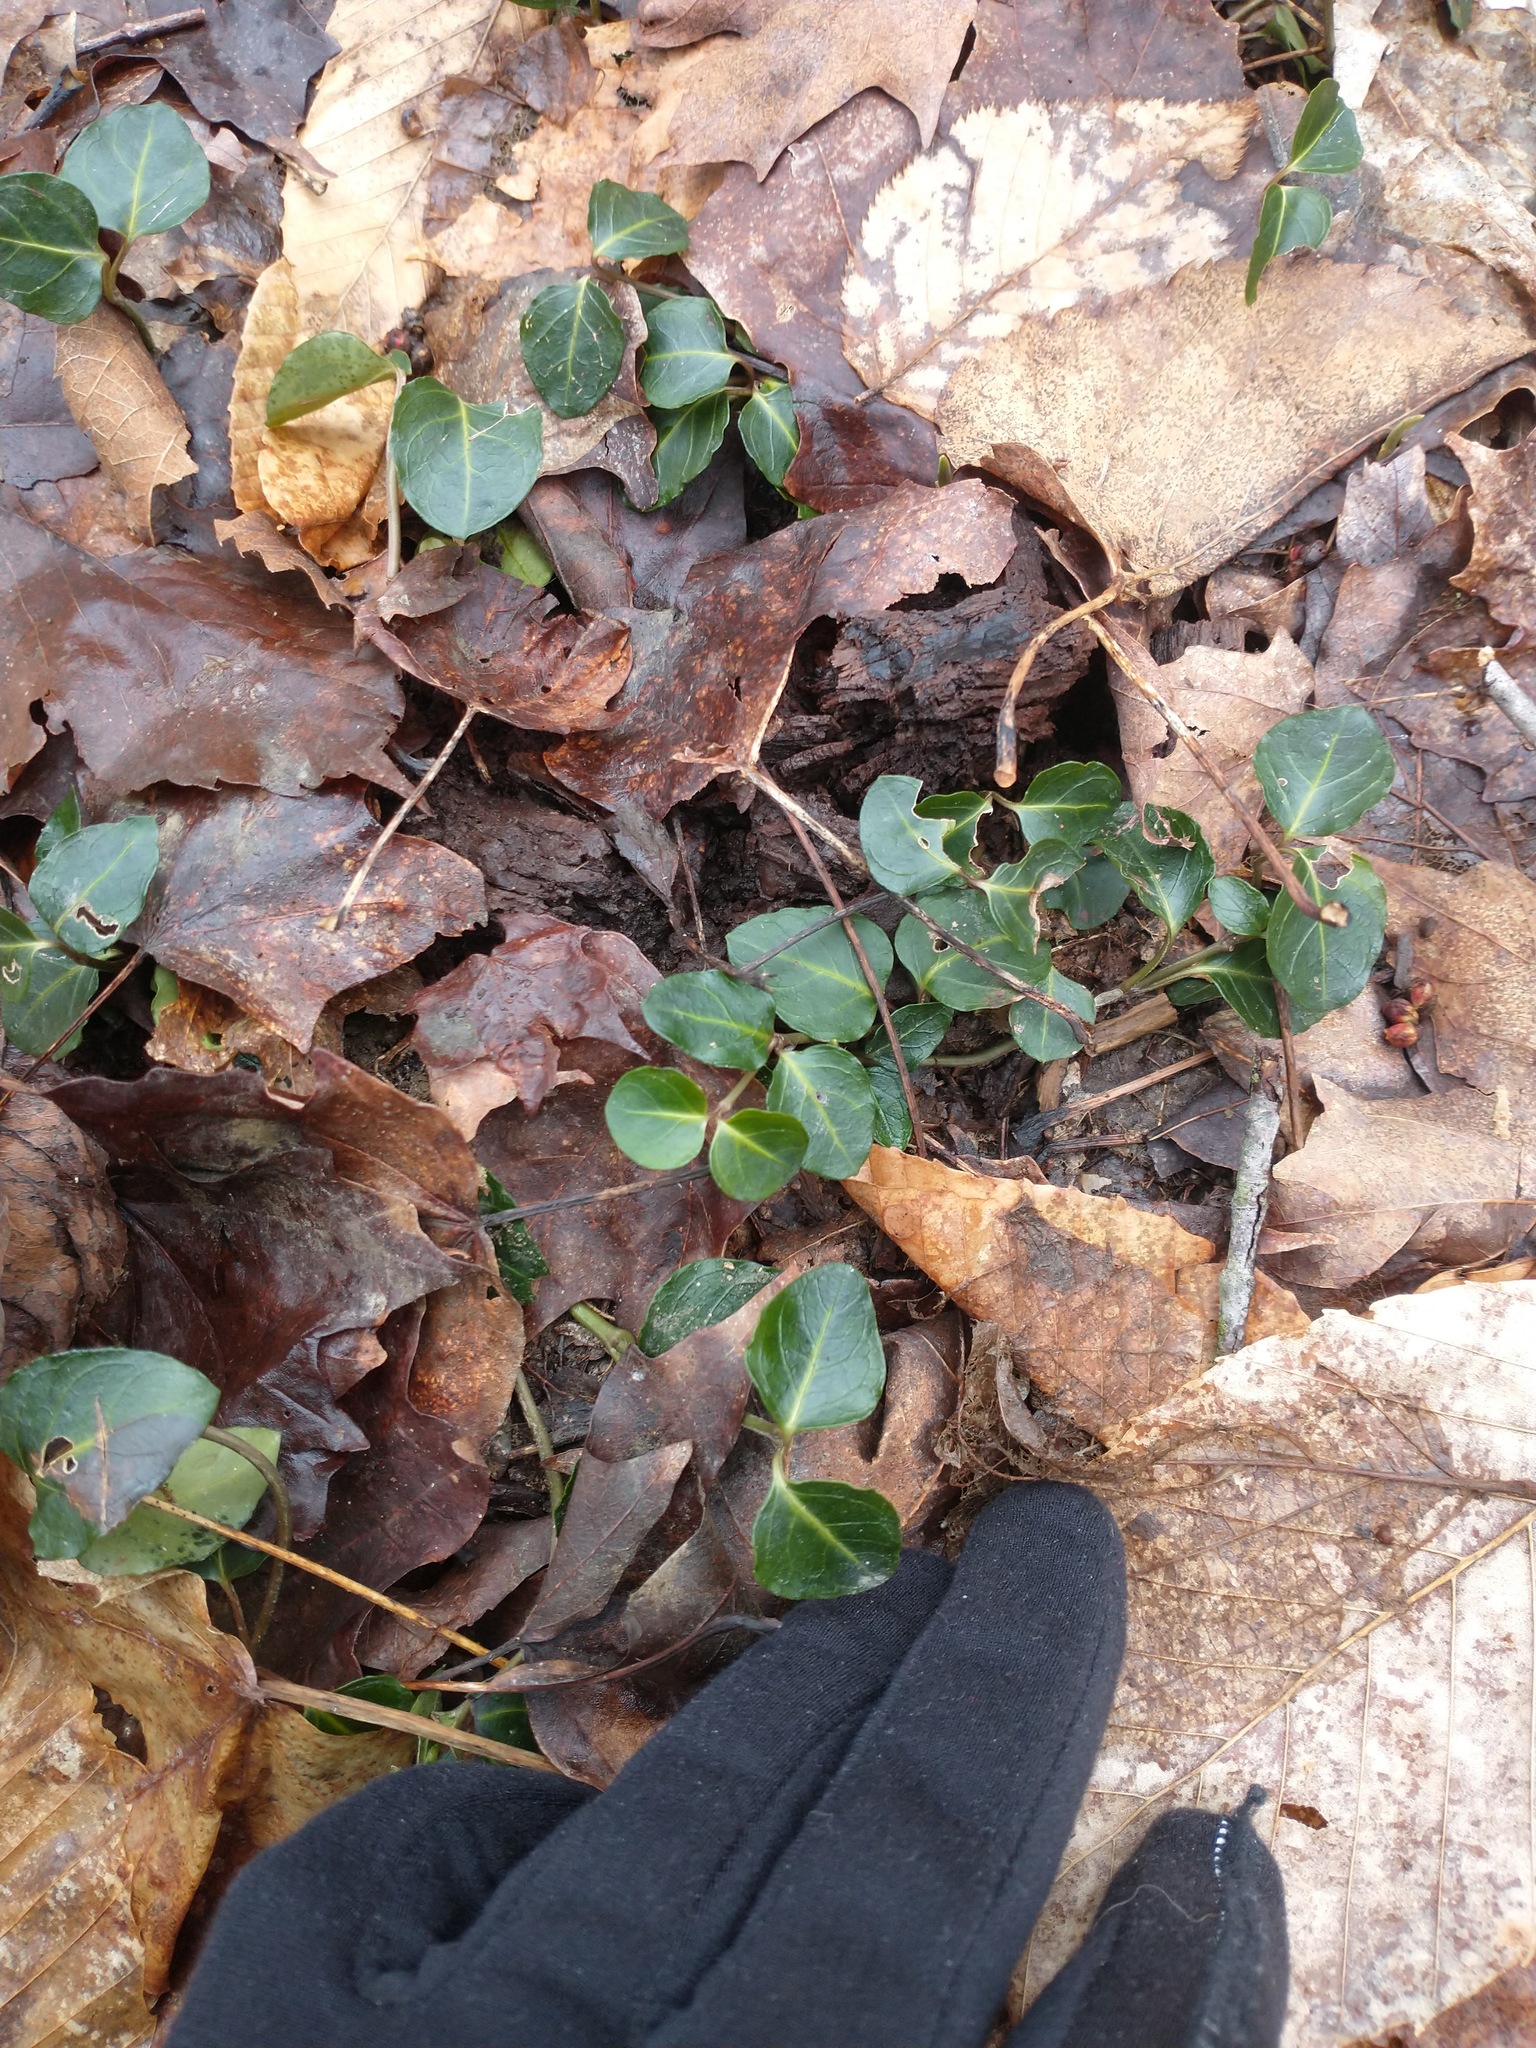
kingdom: Plantae
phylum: Tracheophyta
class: Magnoliopsida
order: Gentianales
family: Rubiaceae
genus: Mitchella
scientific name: Mitchella repens
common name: Partridge-berry
